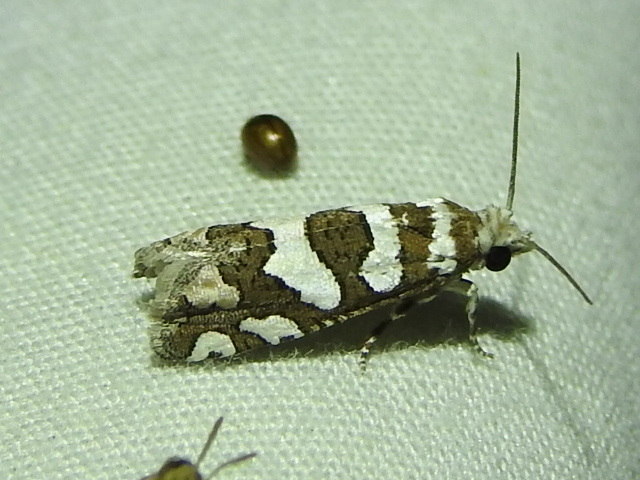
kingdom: Animalia
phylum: Arthropoda
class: Insecta
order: Lepidoptera
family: Tortricidae
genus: Pelochrista
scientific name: Pelochrista robinsonana
